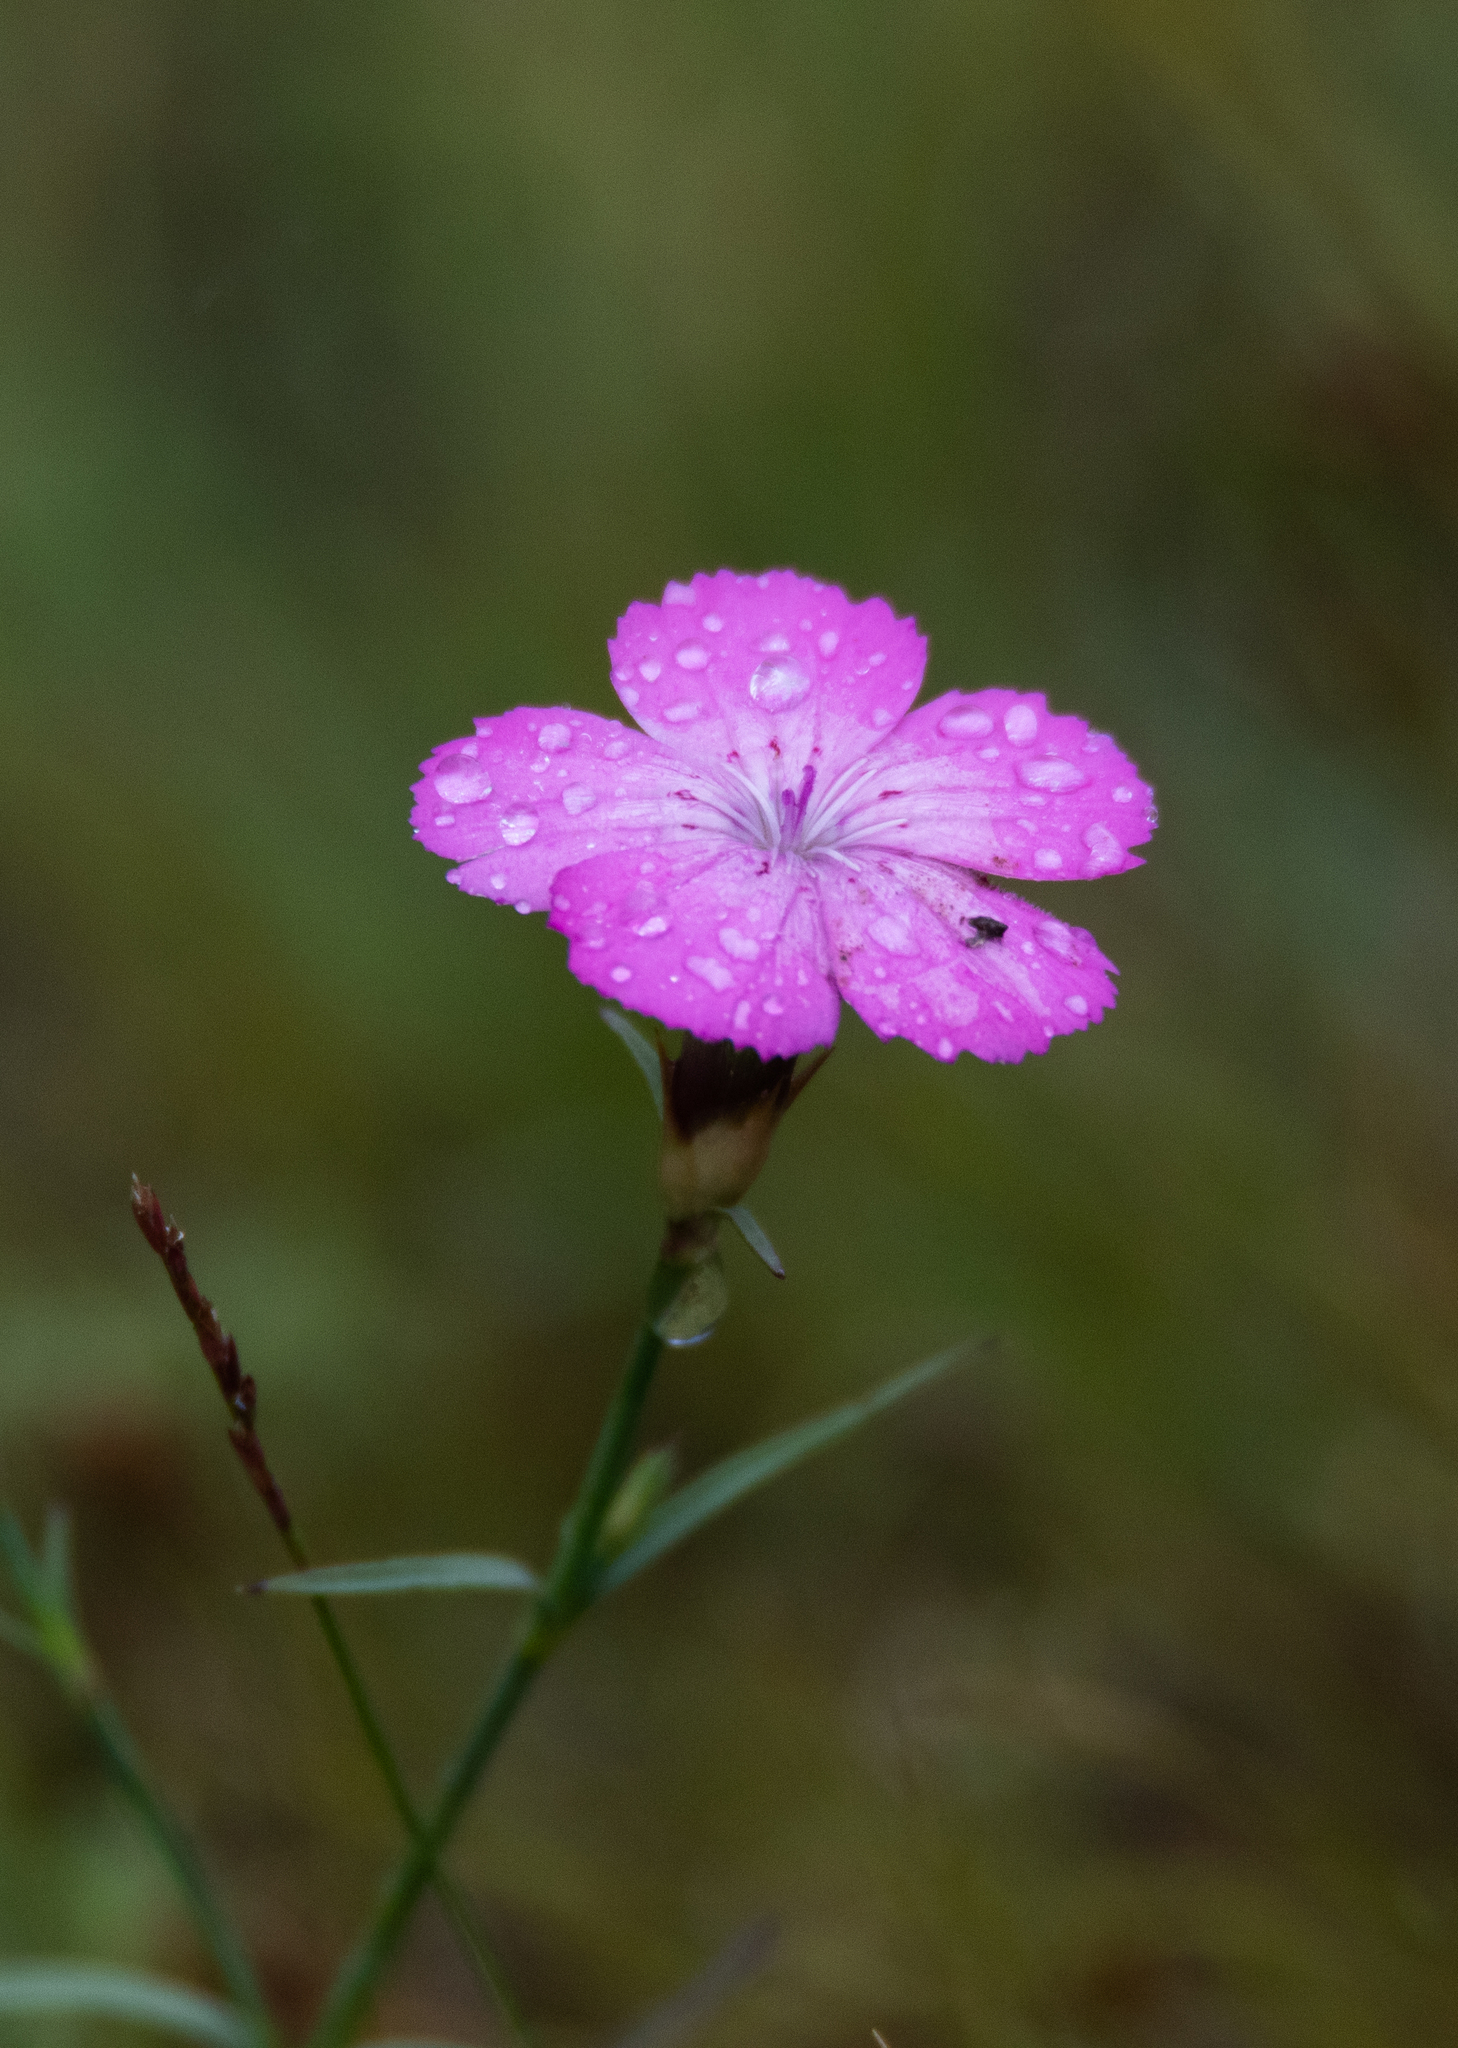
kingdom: Plantae
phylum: Tracheophyta
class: Magnoliopsida
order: Caryophyllales
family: Caryophyllaceae
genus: Dianthus
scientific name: Dianthus chinensis
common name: Rainbow pink
